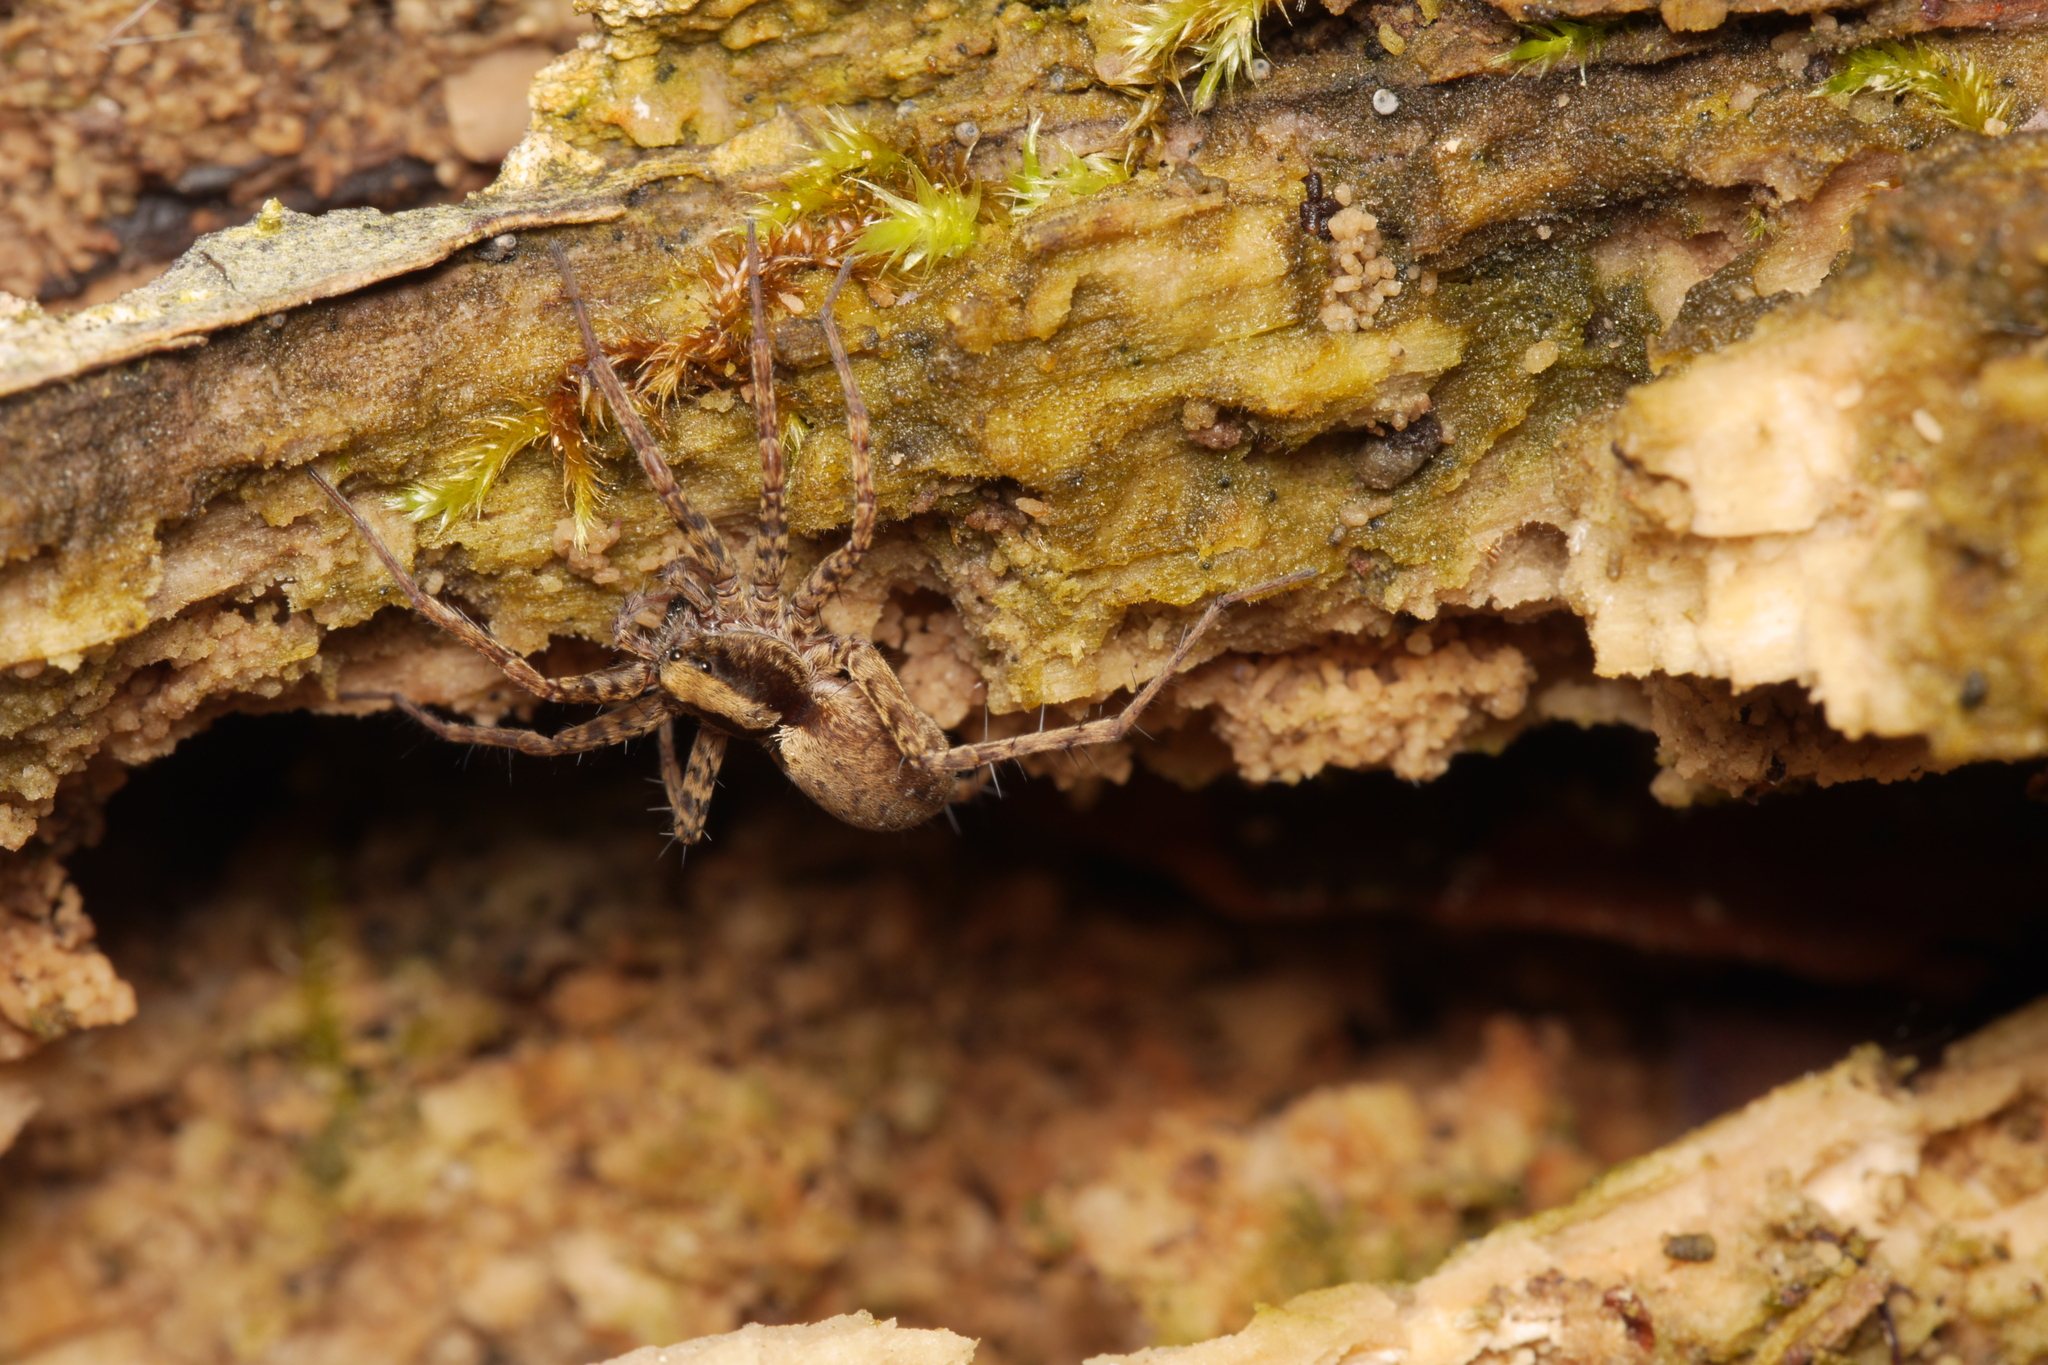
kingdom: Animalia
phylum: Arthropoda
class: Arachnida
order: Araneae
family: Lycosidae
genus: Pardosa
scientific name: Pardosa
